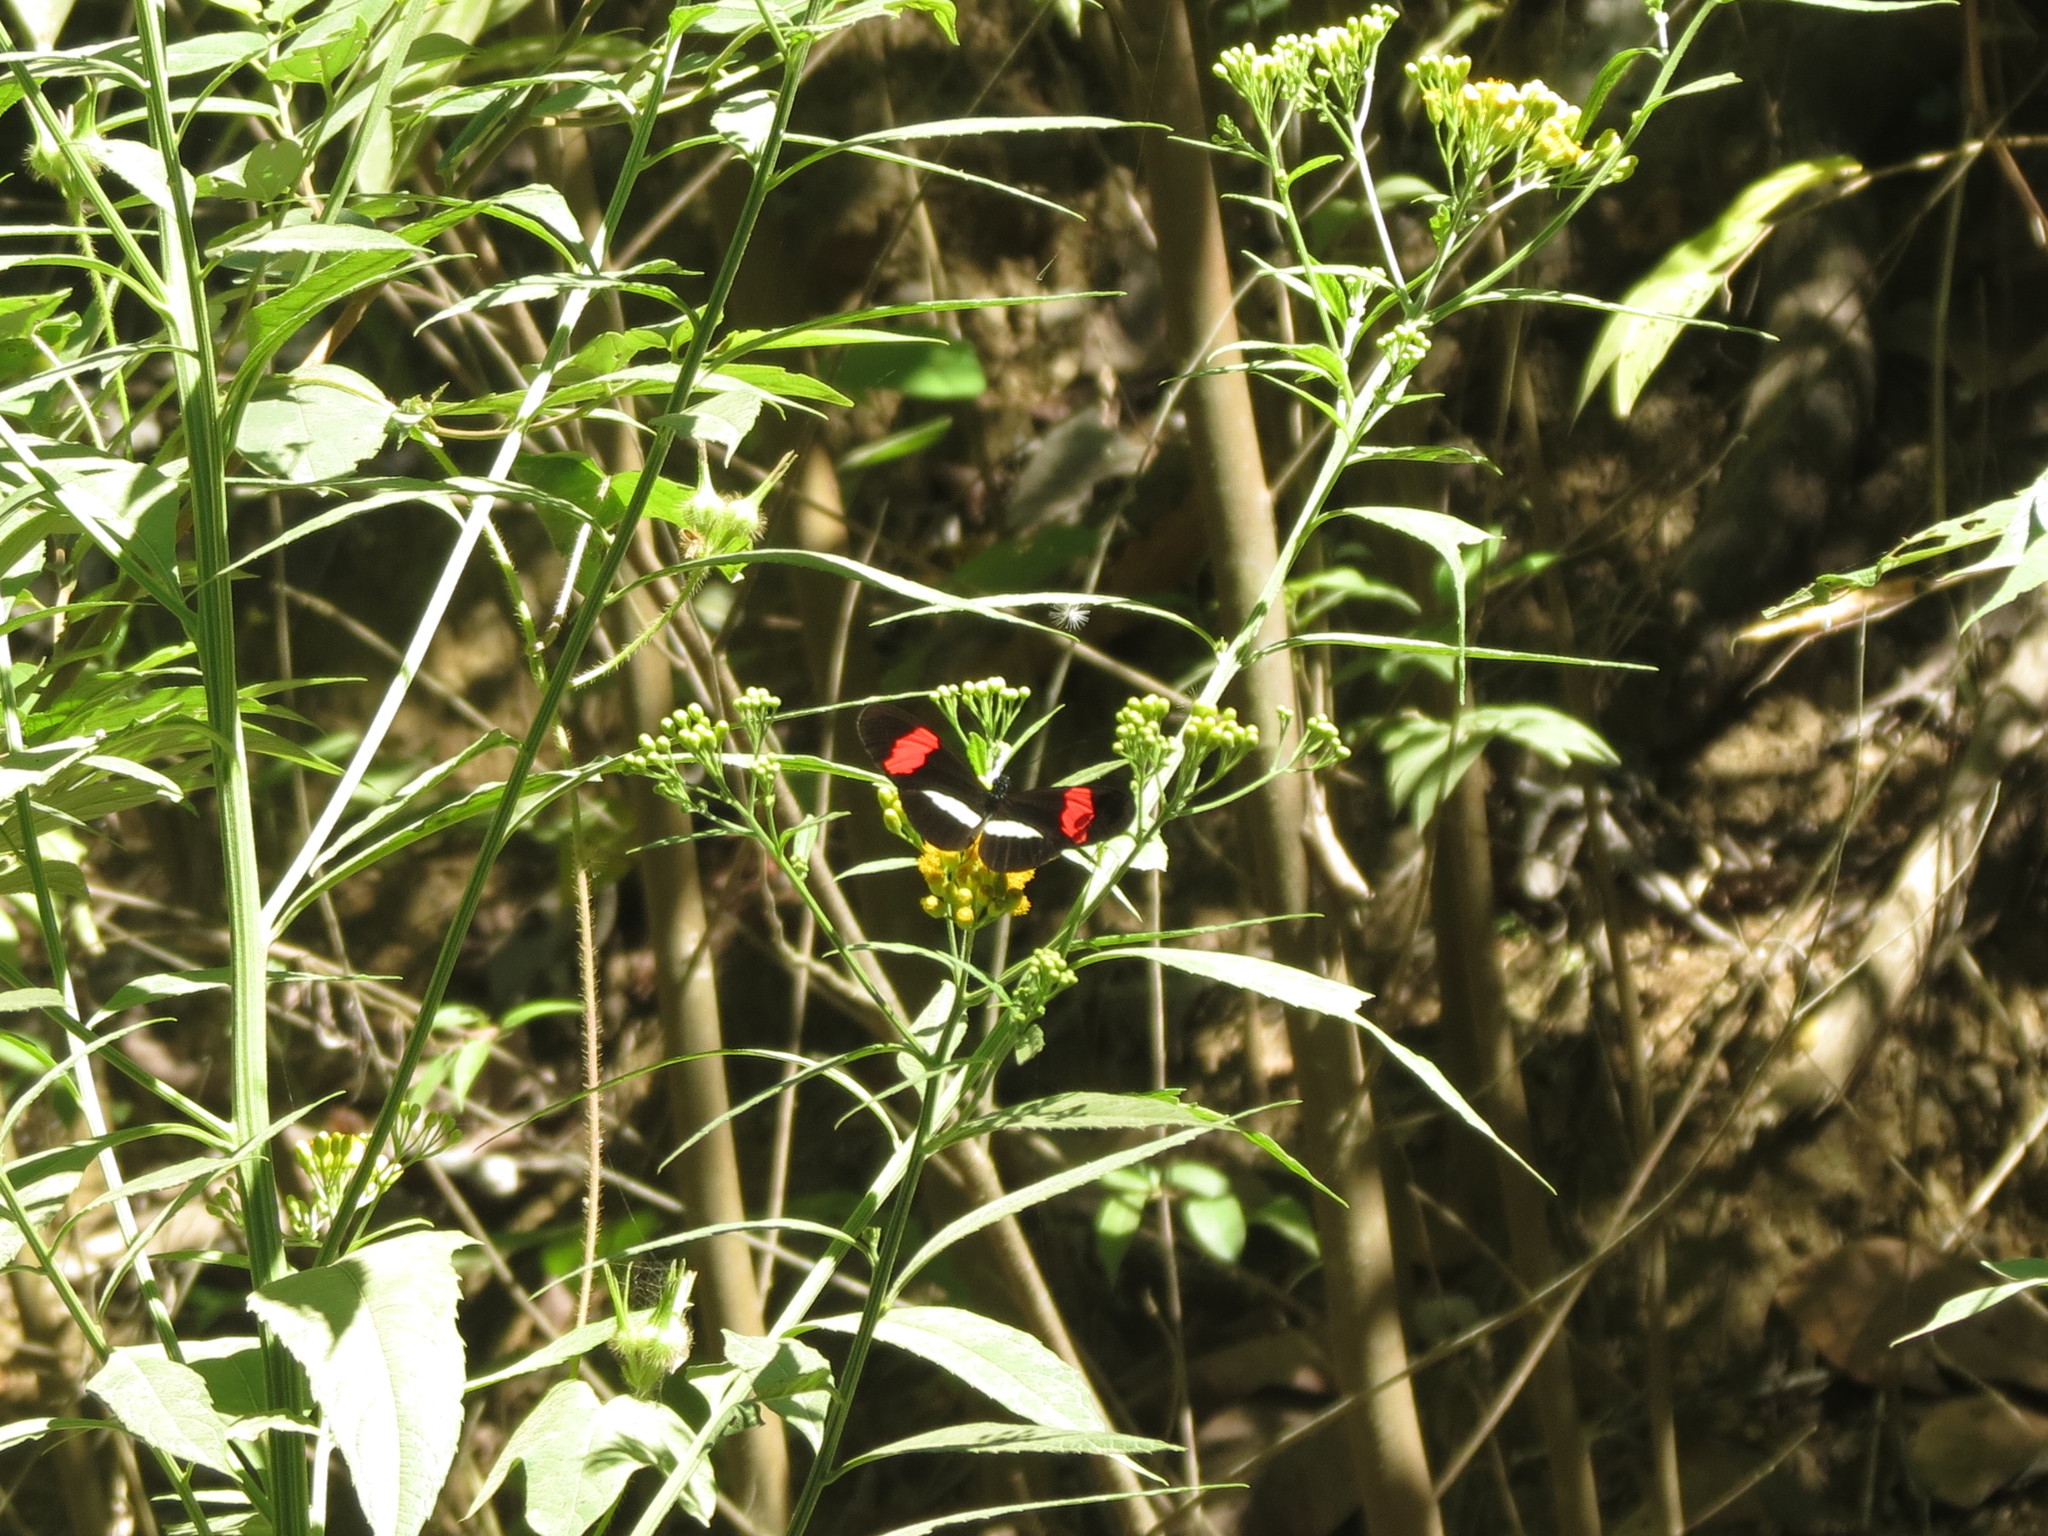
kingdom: Animalia
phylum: Arthropoda
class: Insecta
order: Lepidoptera
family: Nymphalidae
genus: Heliconius
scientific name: Heliconius erato
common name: Common patch longwing
